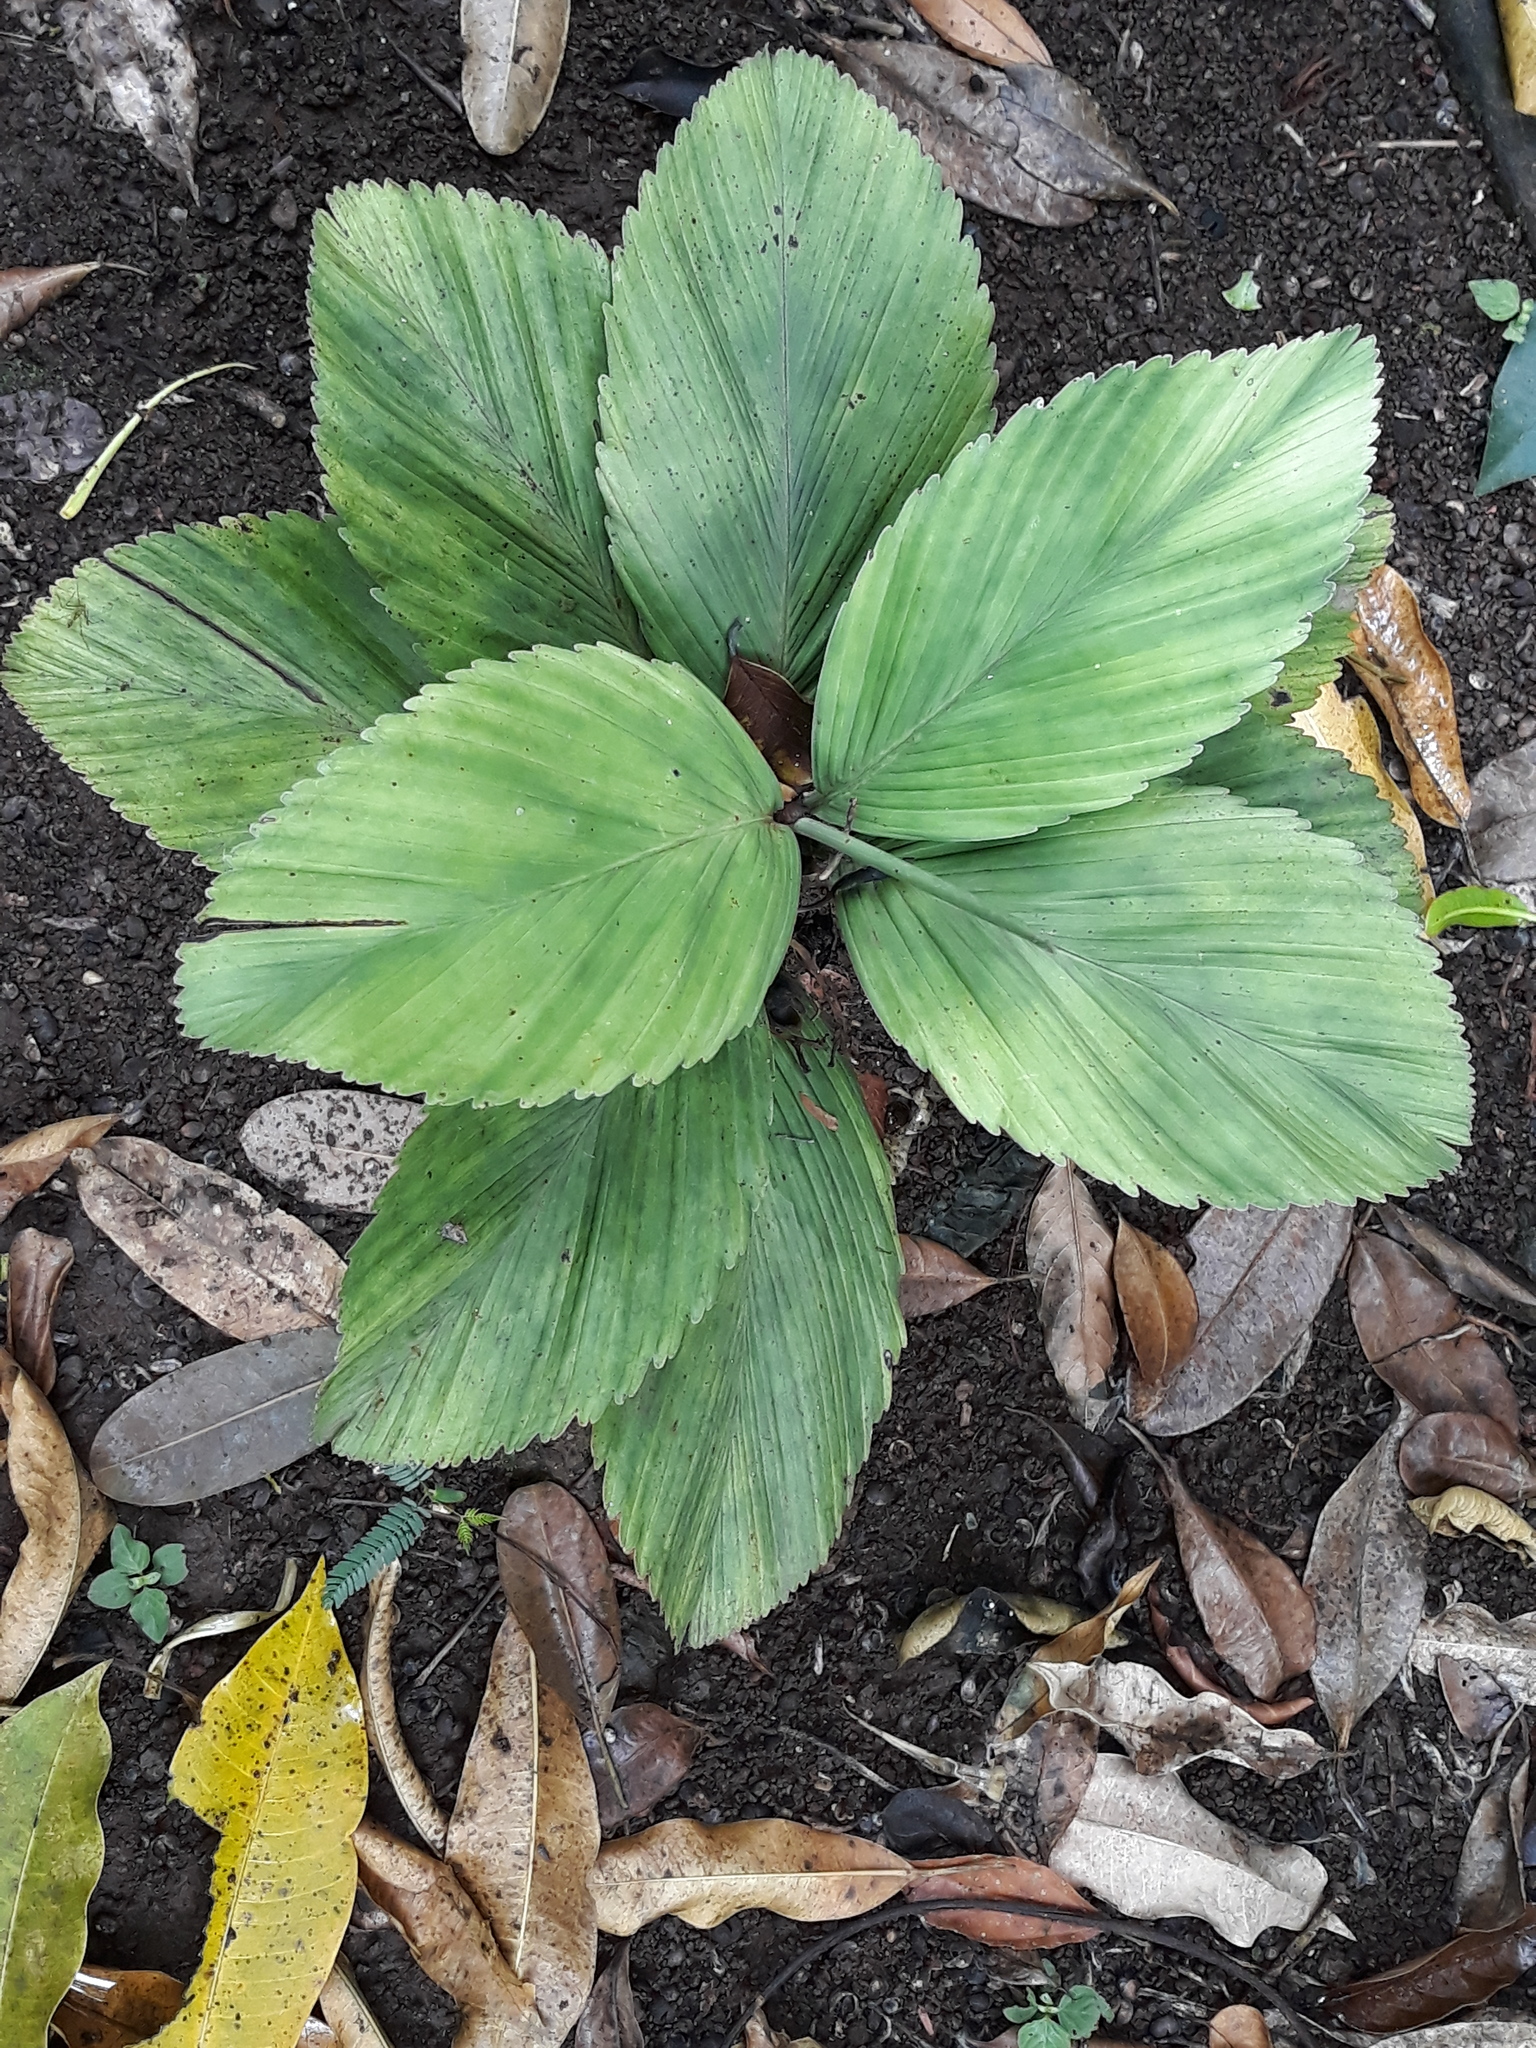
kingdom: Plantae
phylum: Tracheophyta
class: Liliopsida
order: Arecales
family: Arecaceae
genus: Chamaedorea
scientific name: Chamaedorea tuerckheimii
